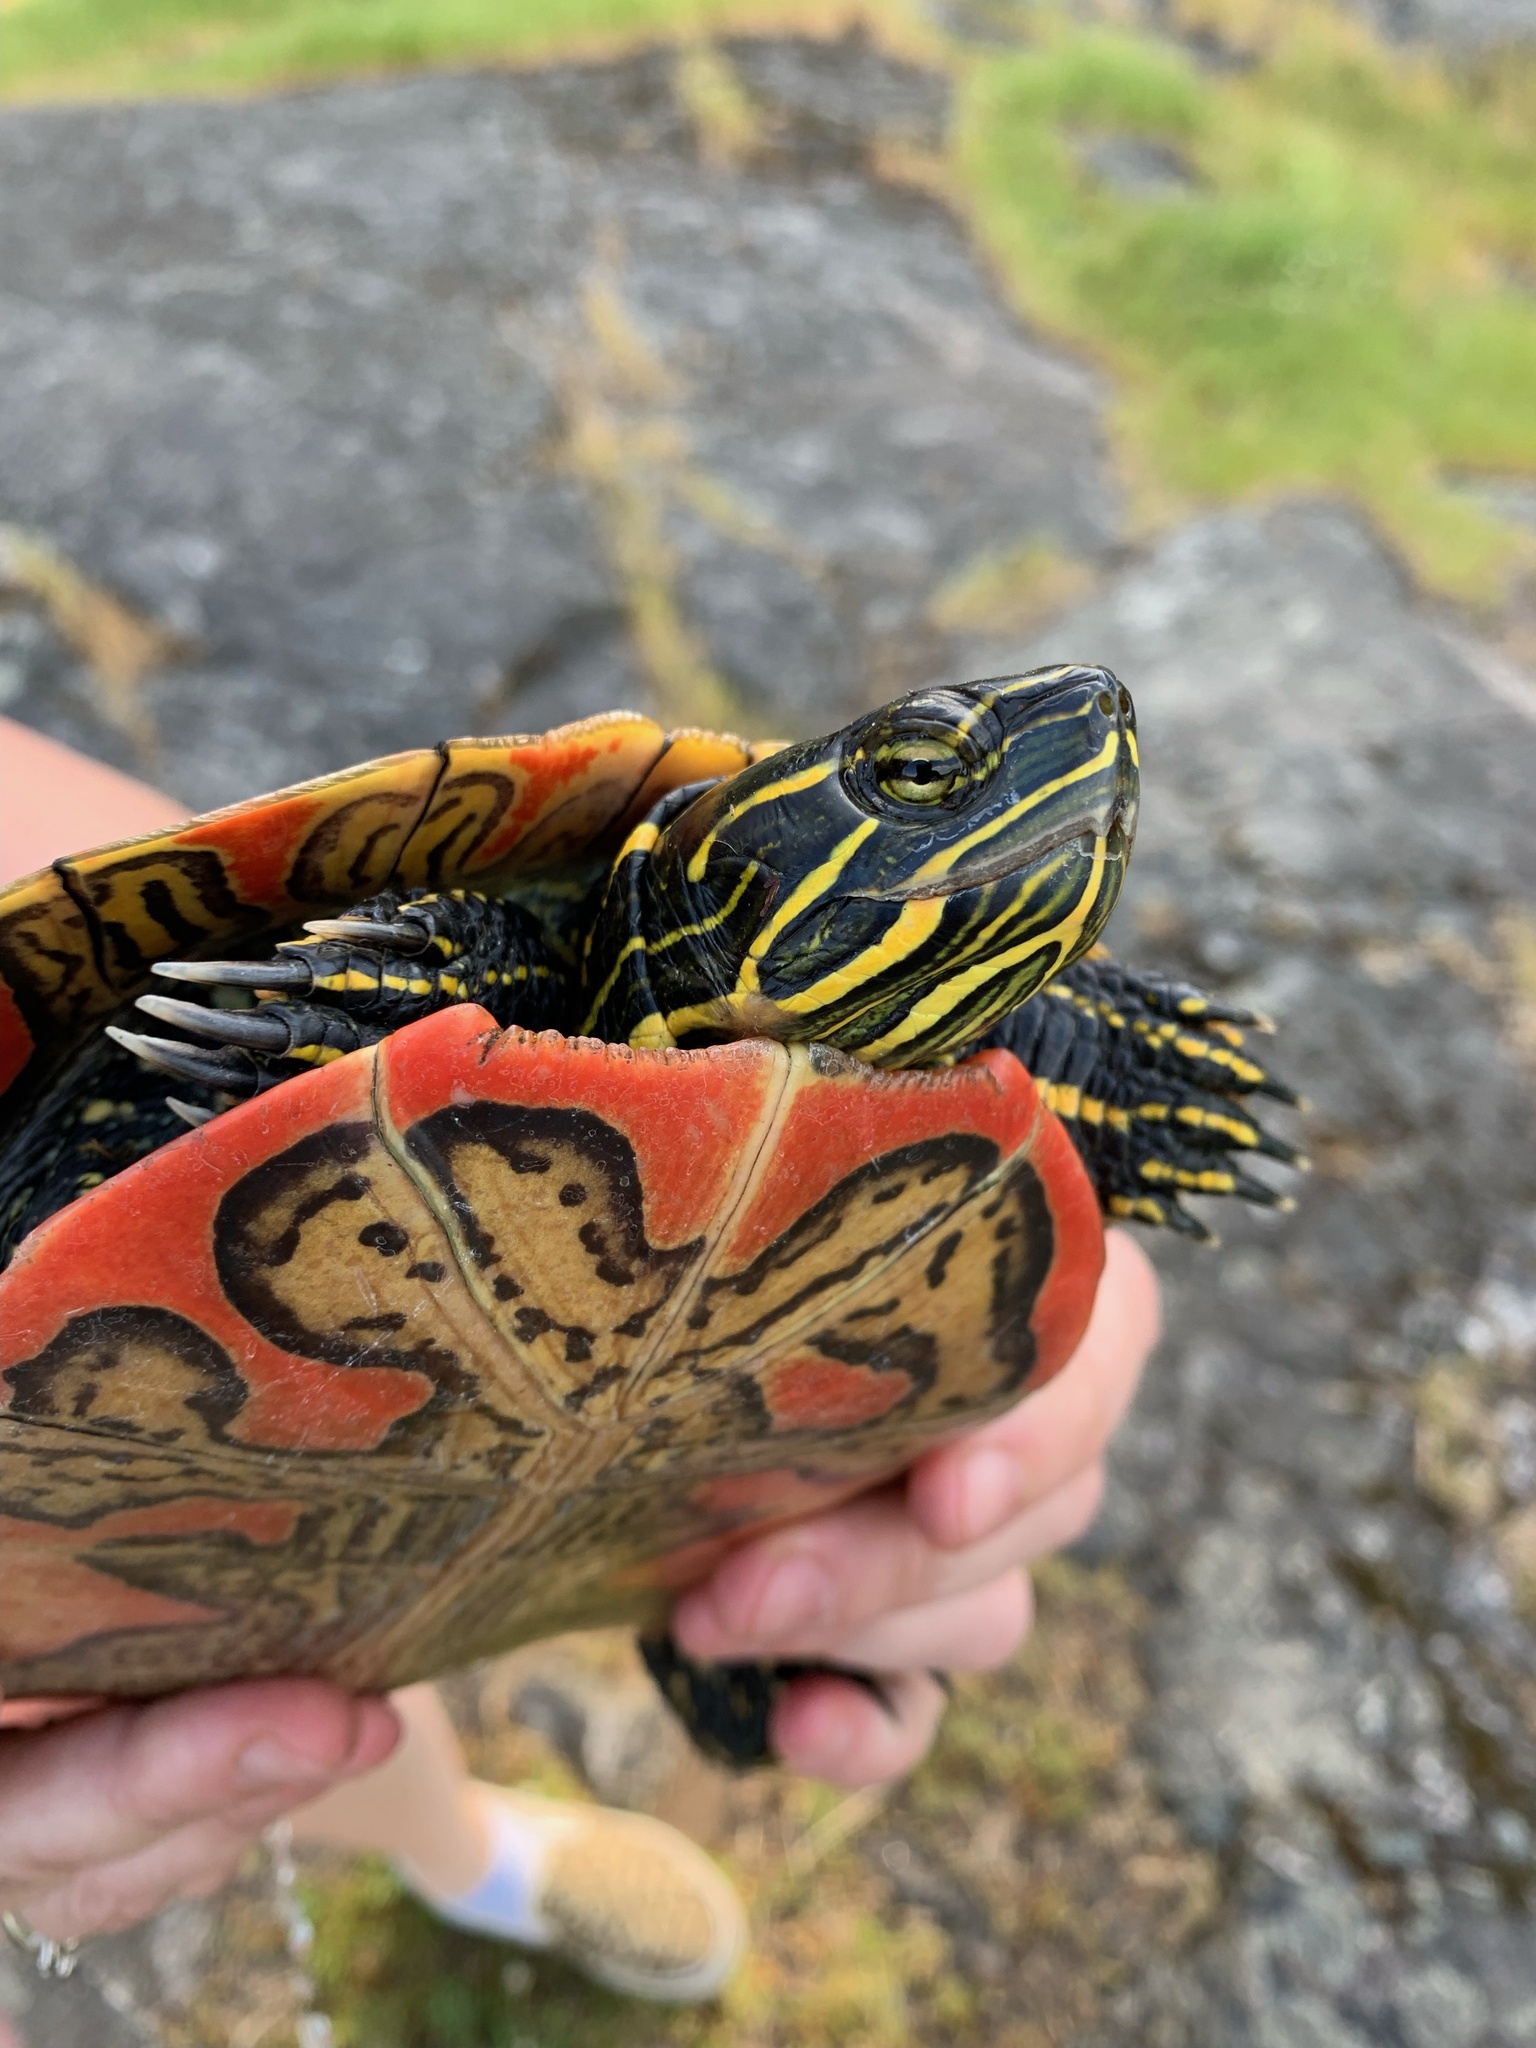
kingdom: Animalia
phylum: Chordata
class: Testudines
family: Emydidae
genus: Chrysemys
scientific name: Chrysemys picta
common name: Painted turtle
